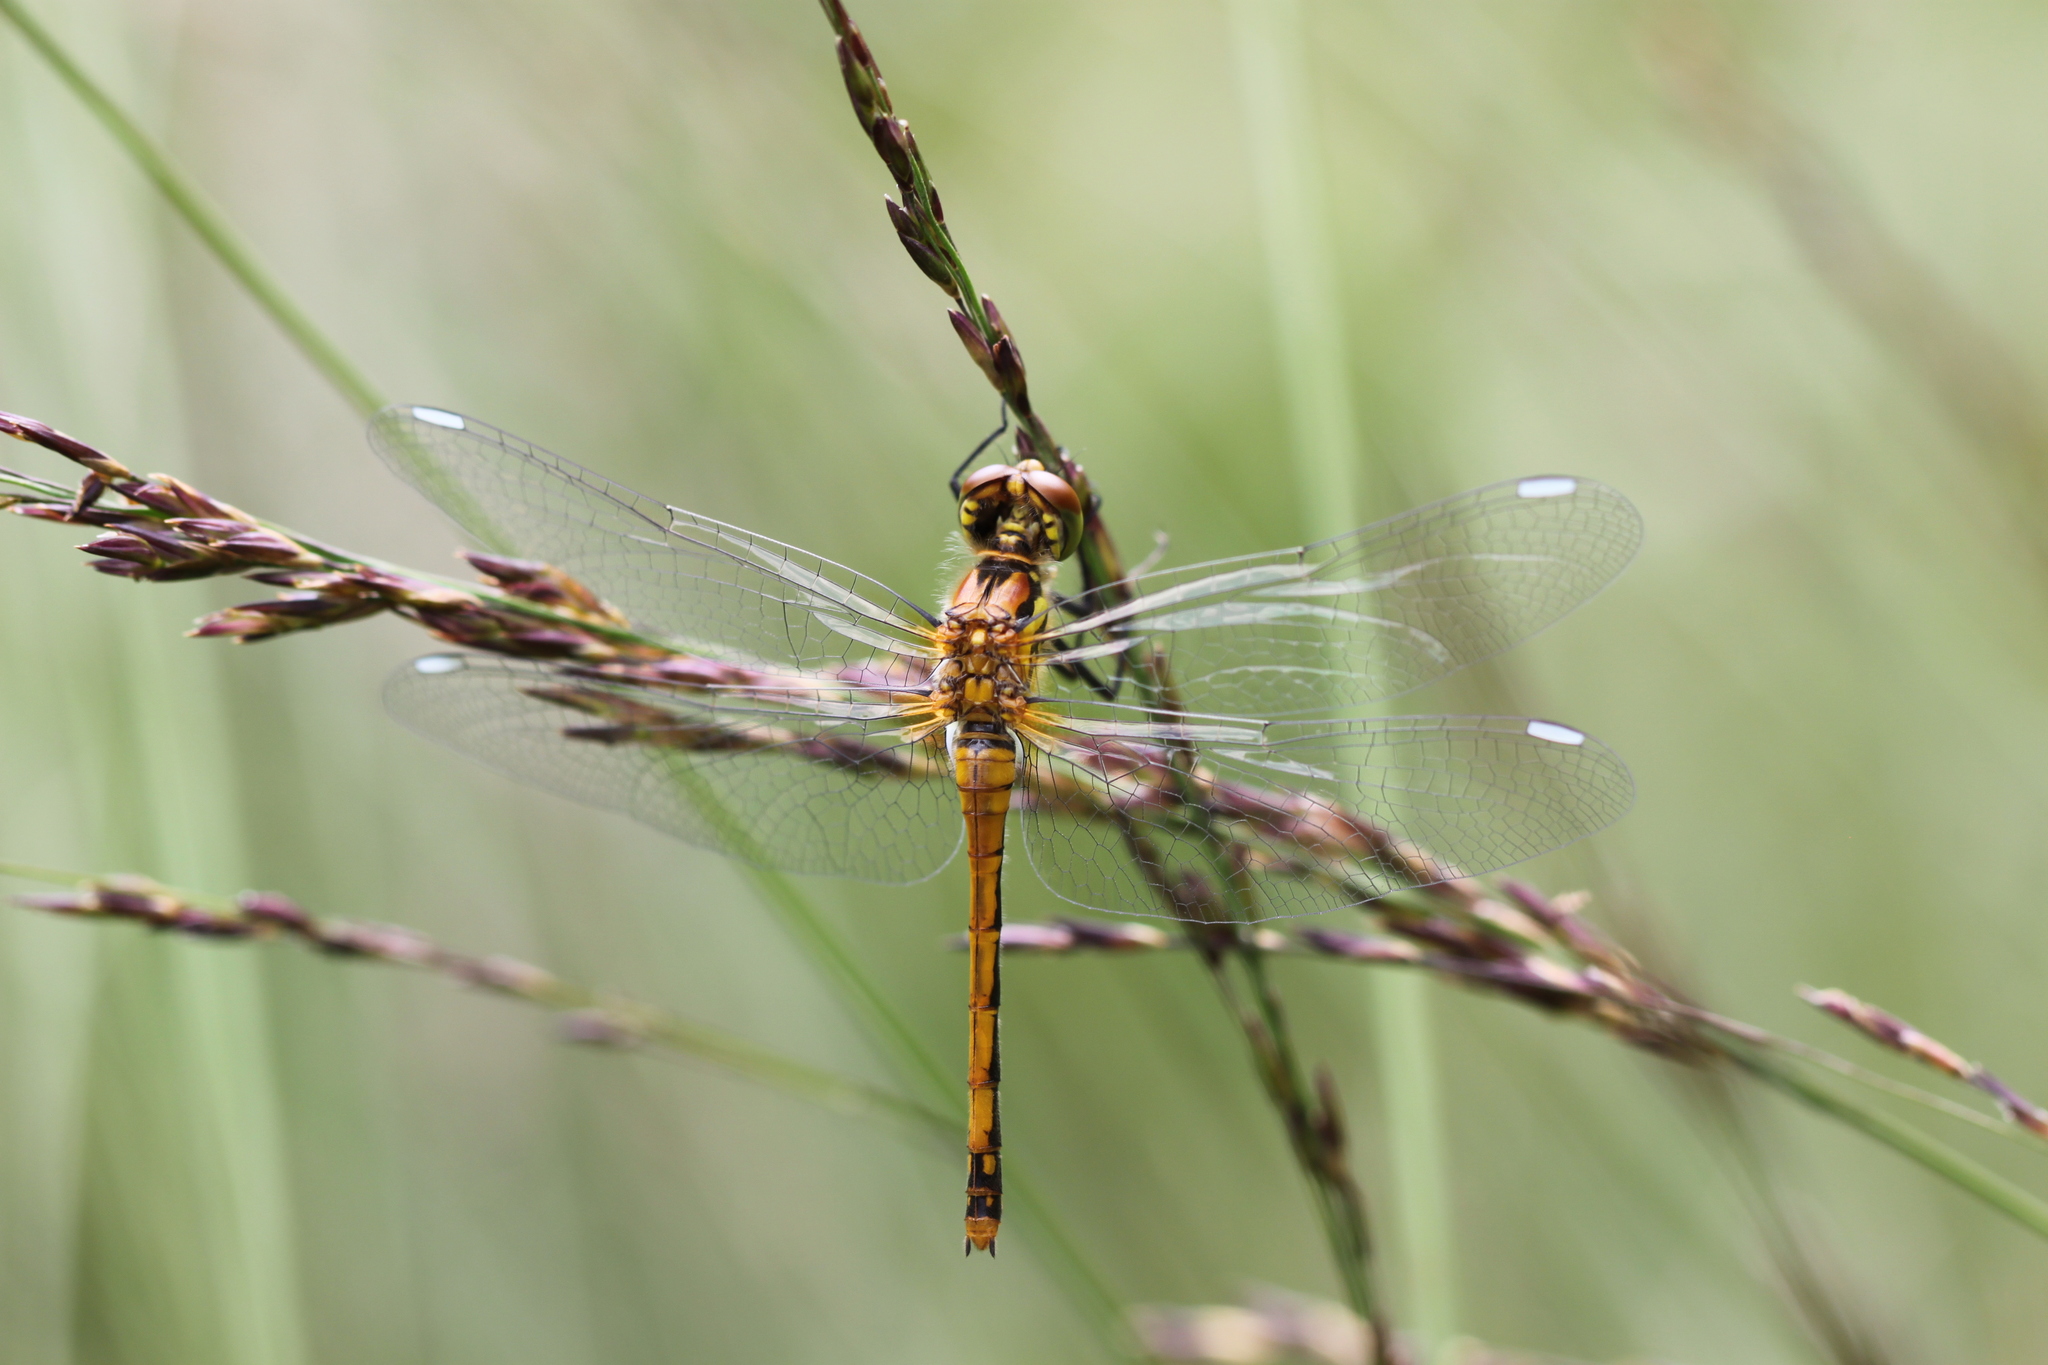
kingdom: Animalia
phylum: Arthropoda
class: Insecta
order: Odonata
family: Libellulidae
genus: Sympetrum
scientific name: Sympetrum danae
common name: Black darter
